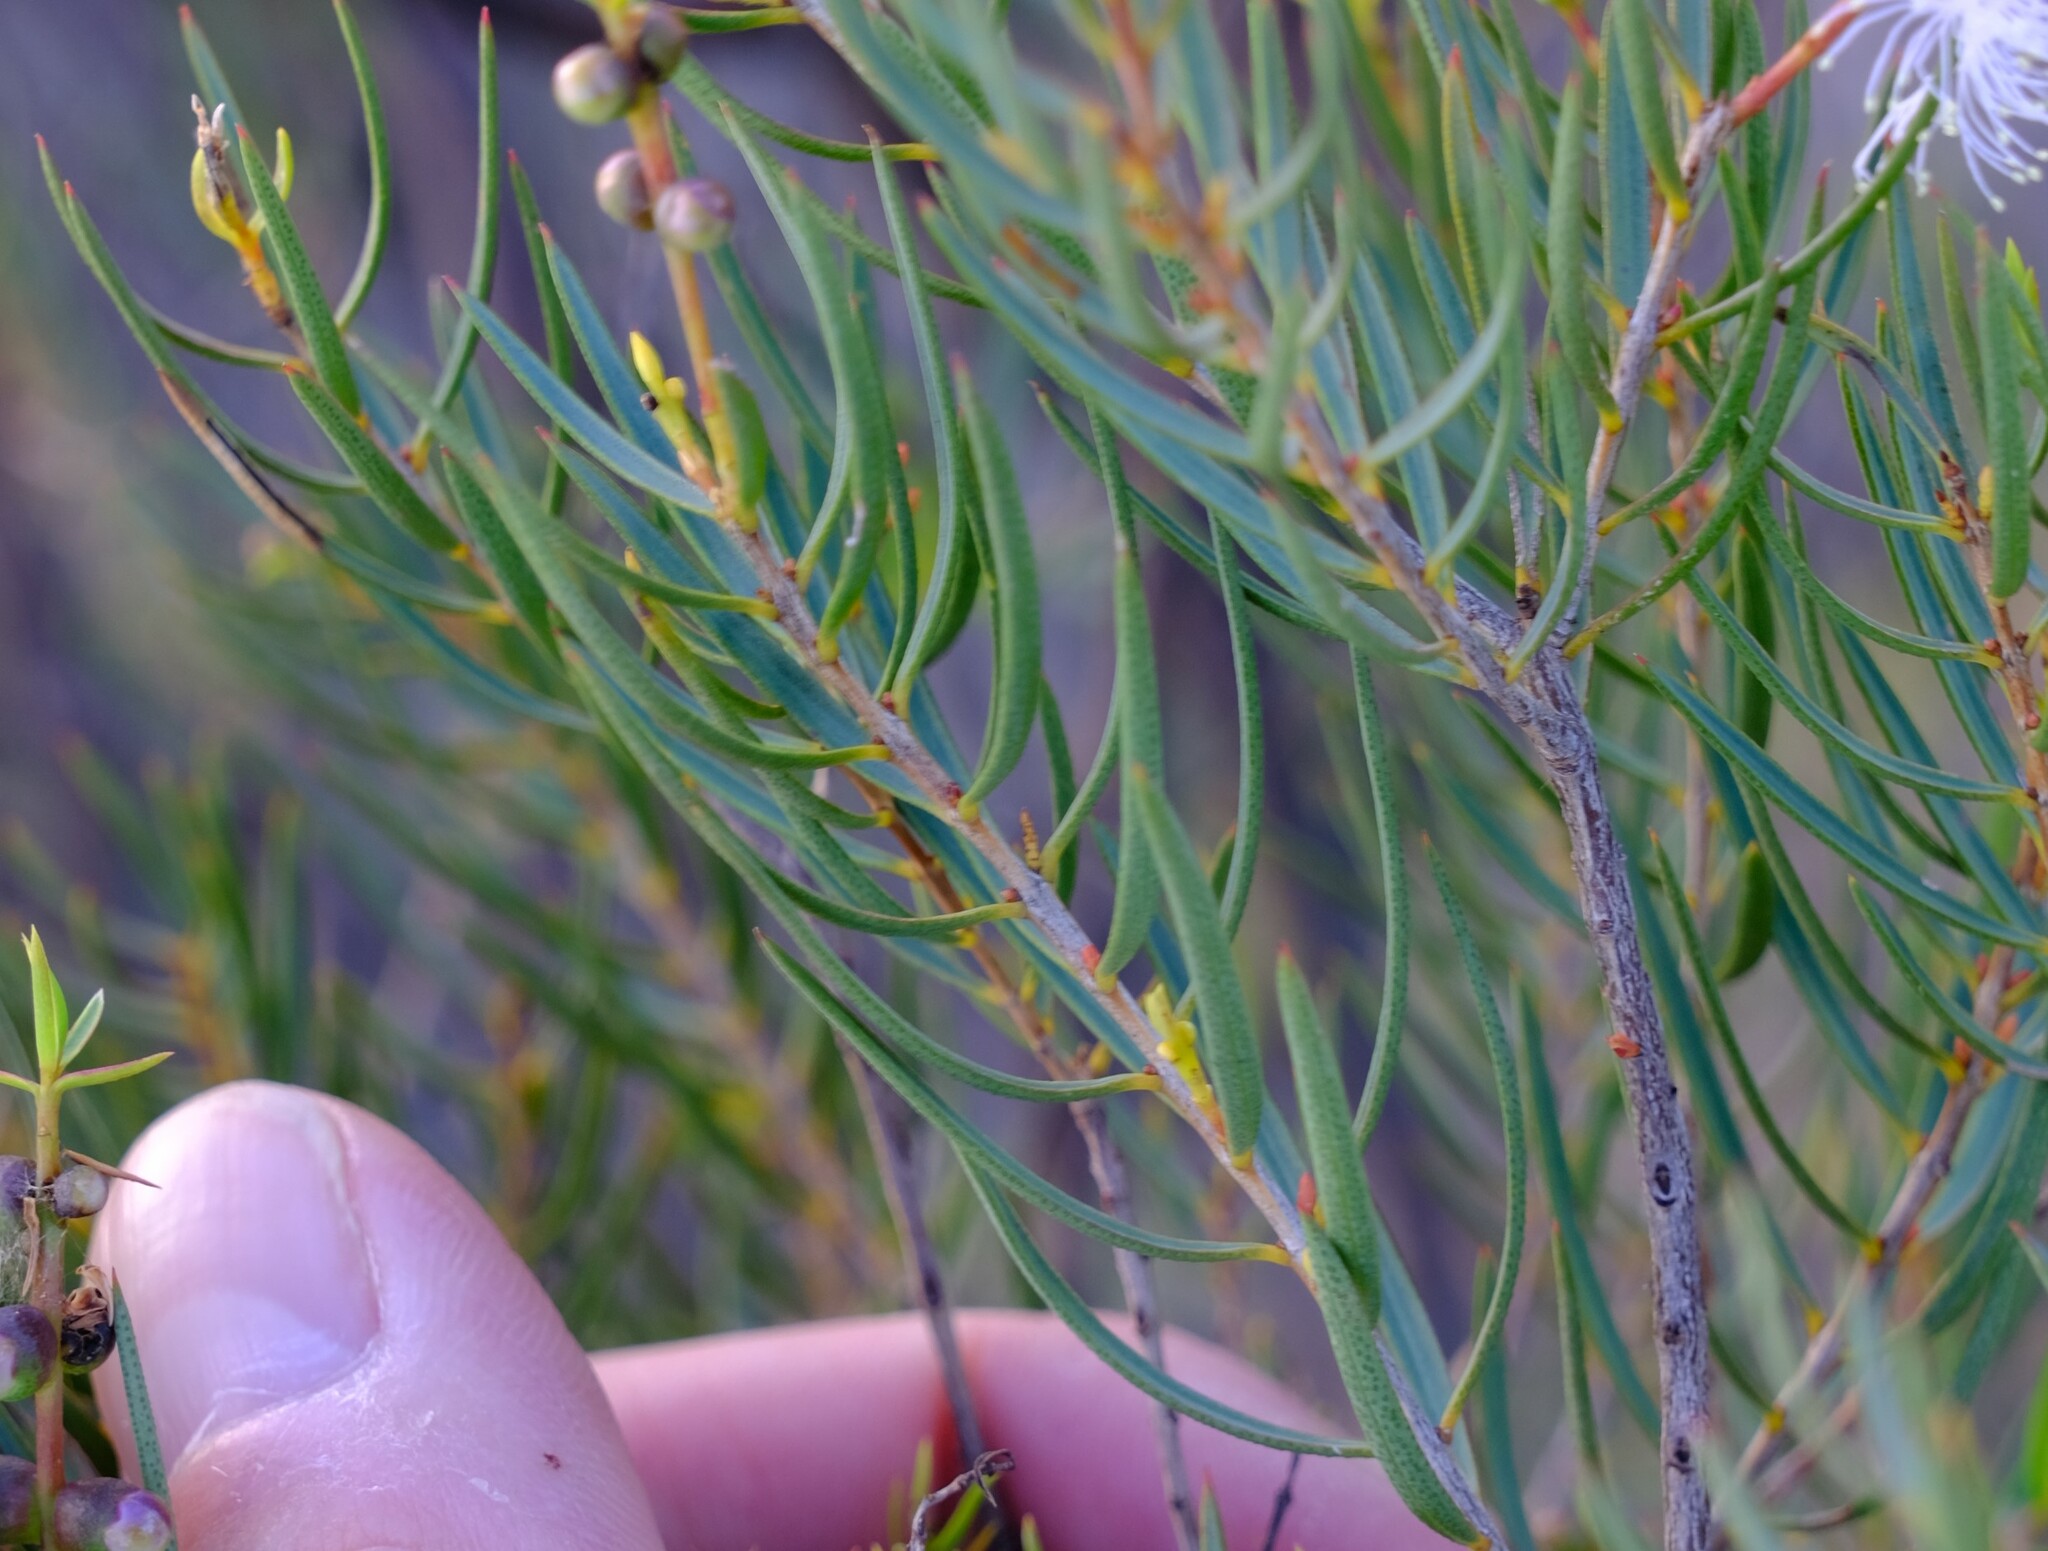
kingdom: Plantae
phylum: Tracheophyta
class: Magnoliopsida
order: Myrtales
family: Myrtaceae
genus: Melaleuca
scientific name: Melaleuca radula
